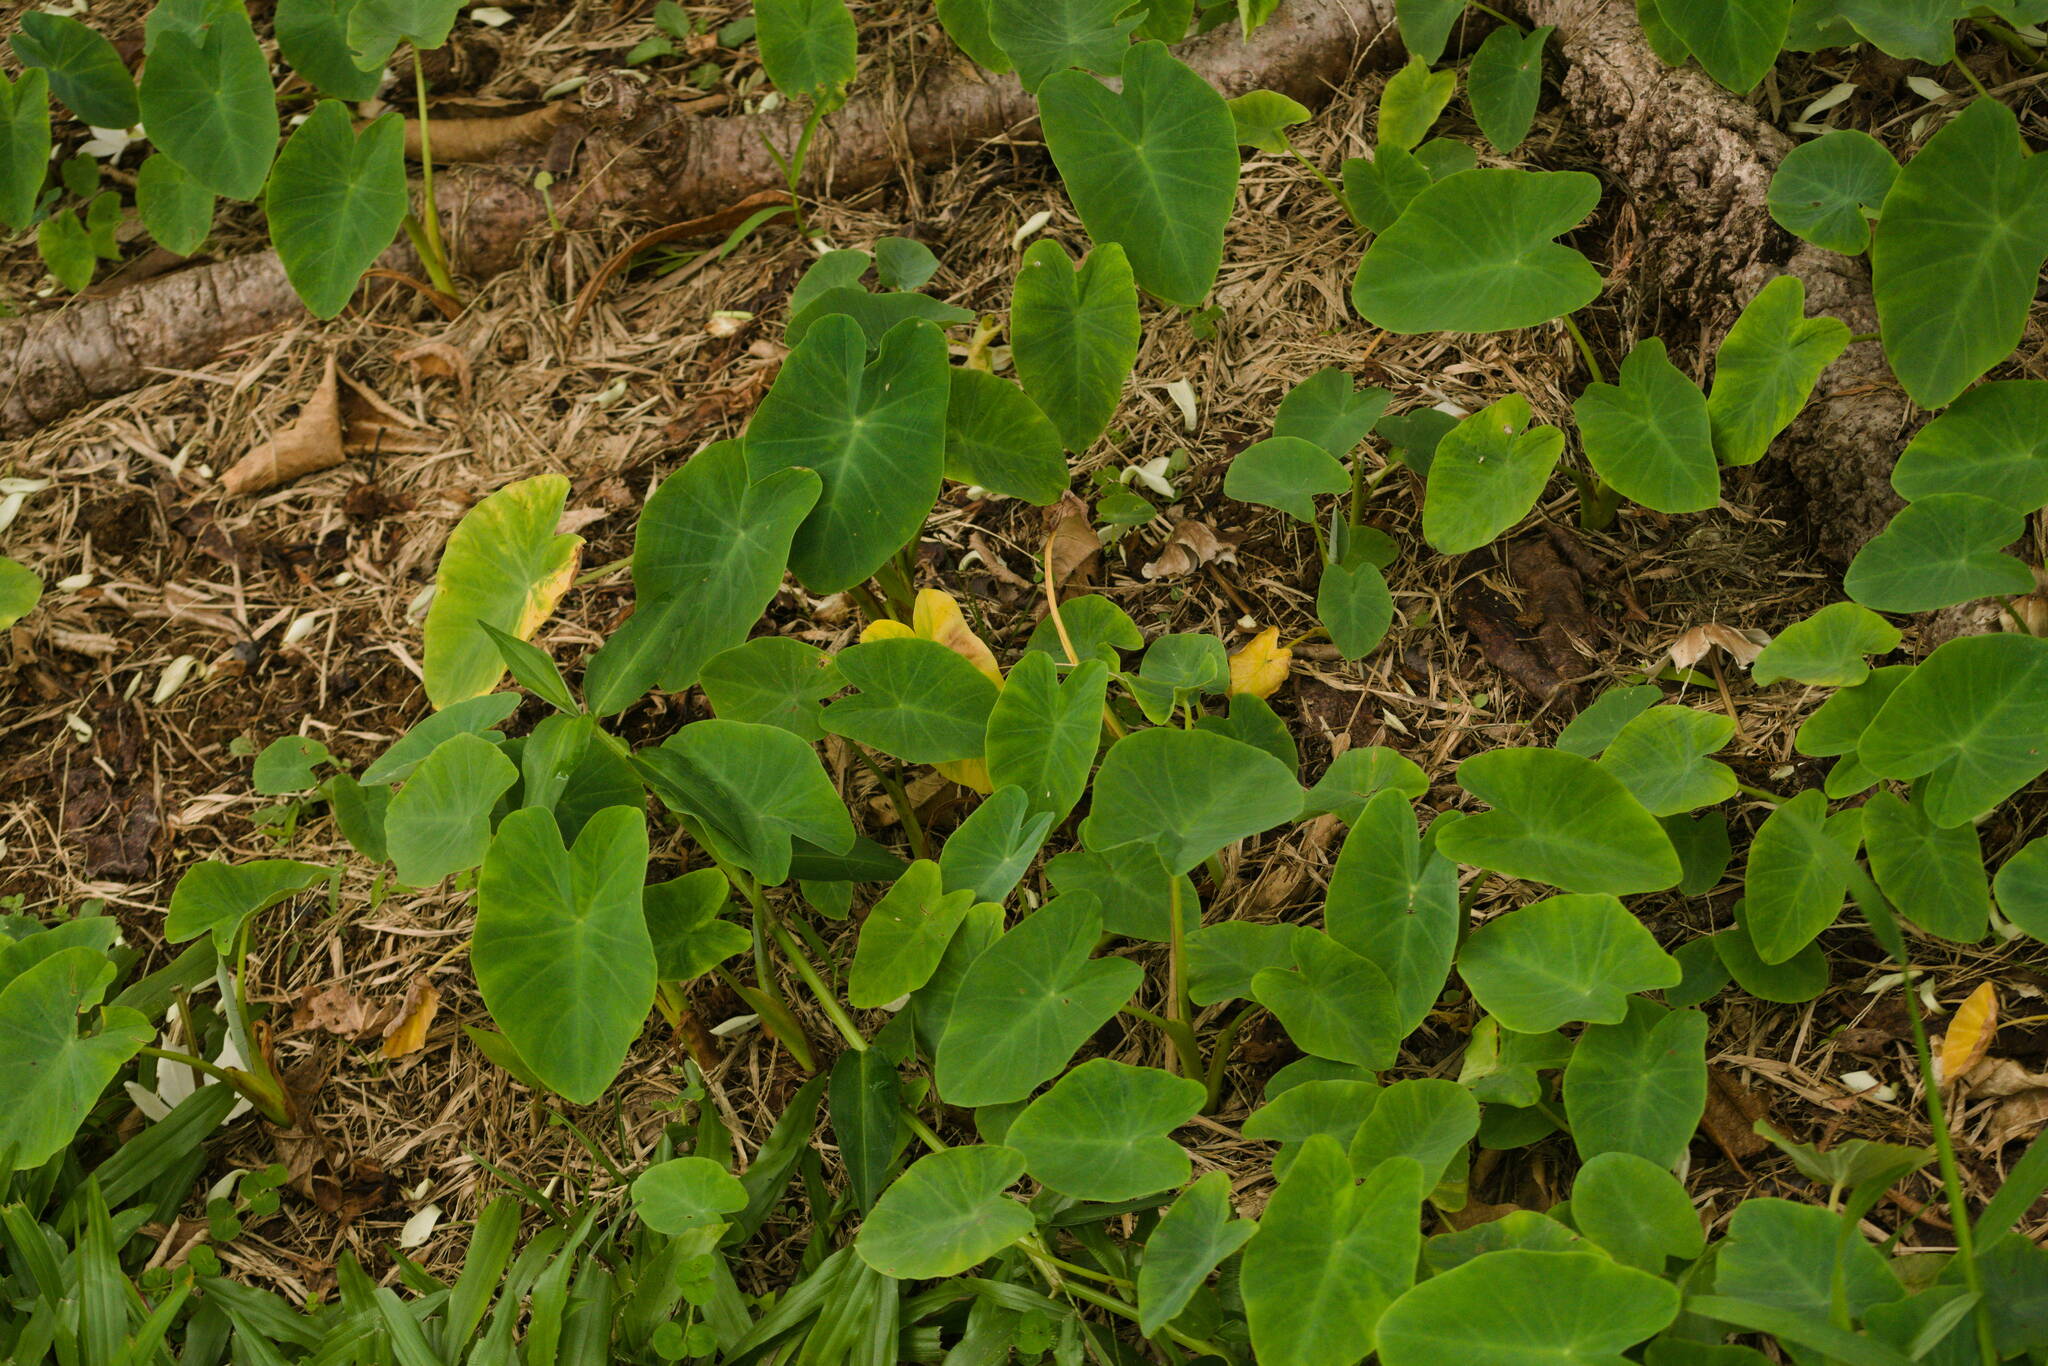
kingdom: Plantae
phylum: Tracheophyta
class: Liliopsida
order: Alismatales
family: Araceae
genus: Colocasia
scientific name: Colocasia esculenta
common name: Taro
